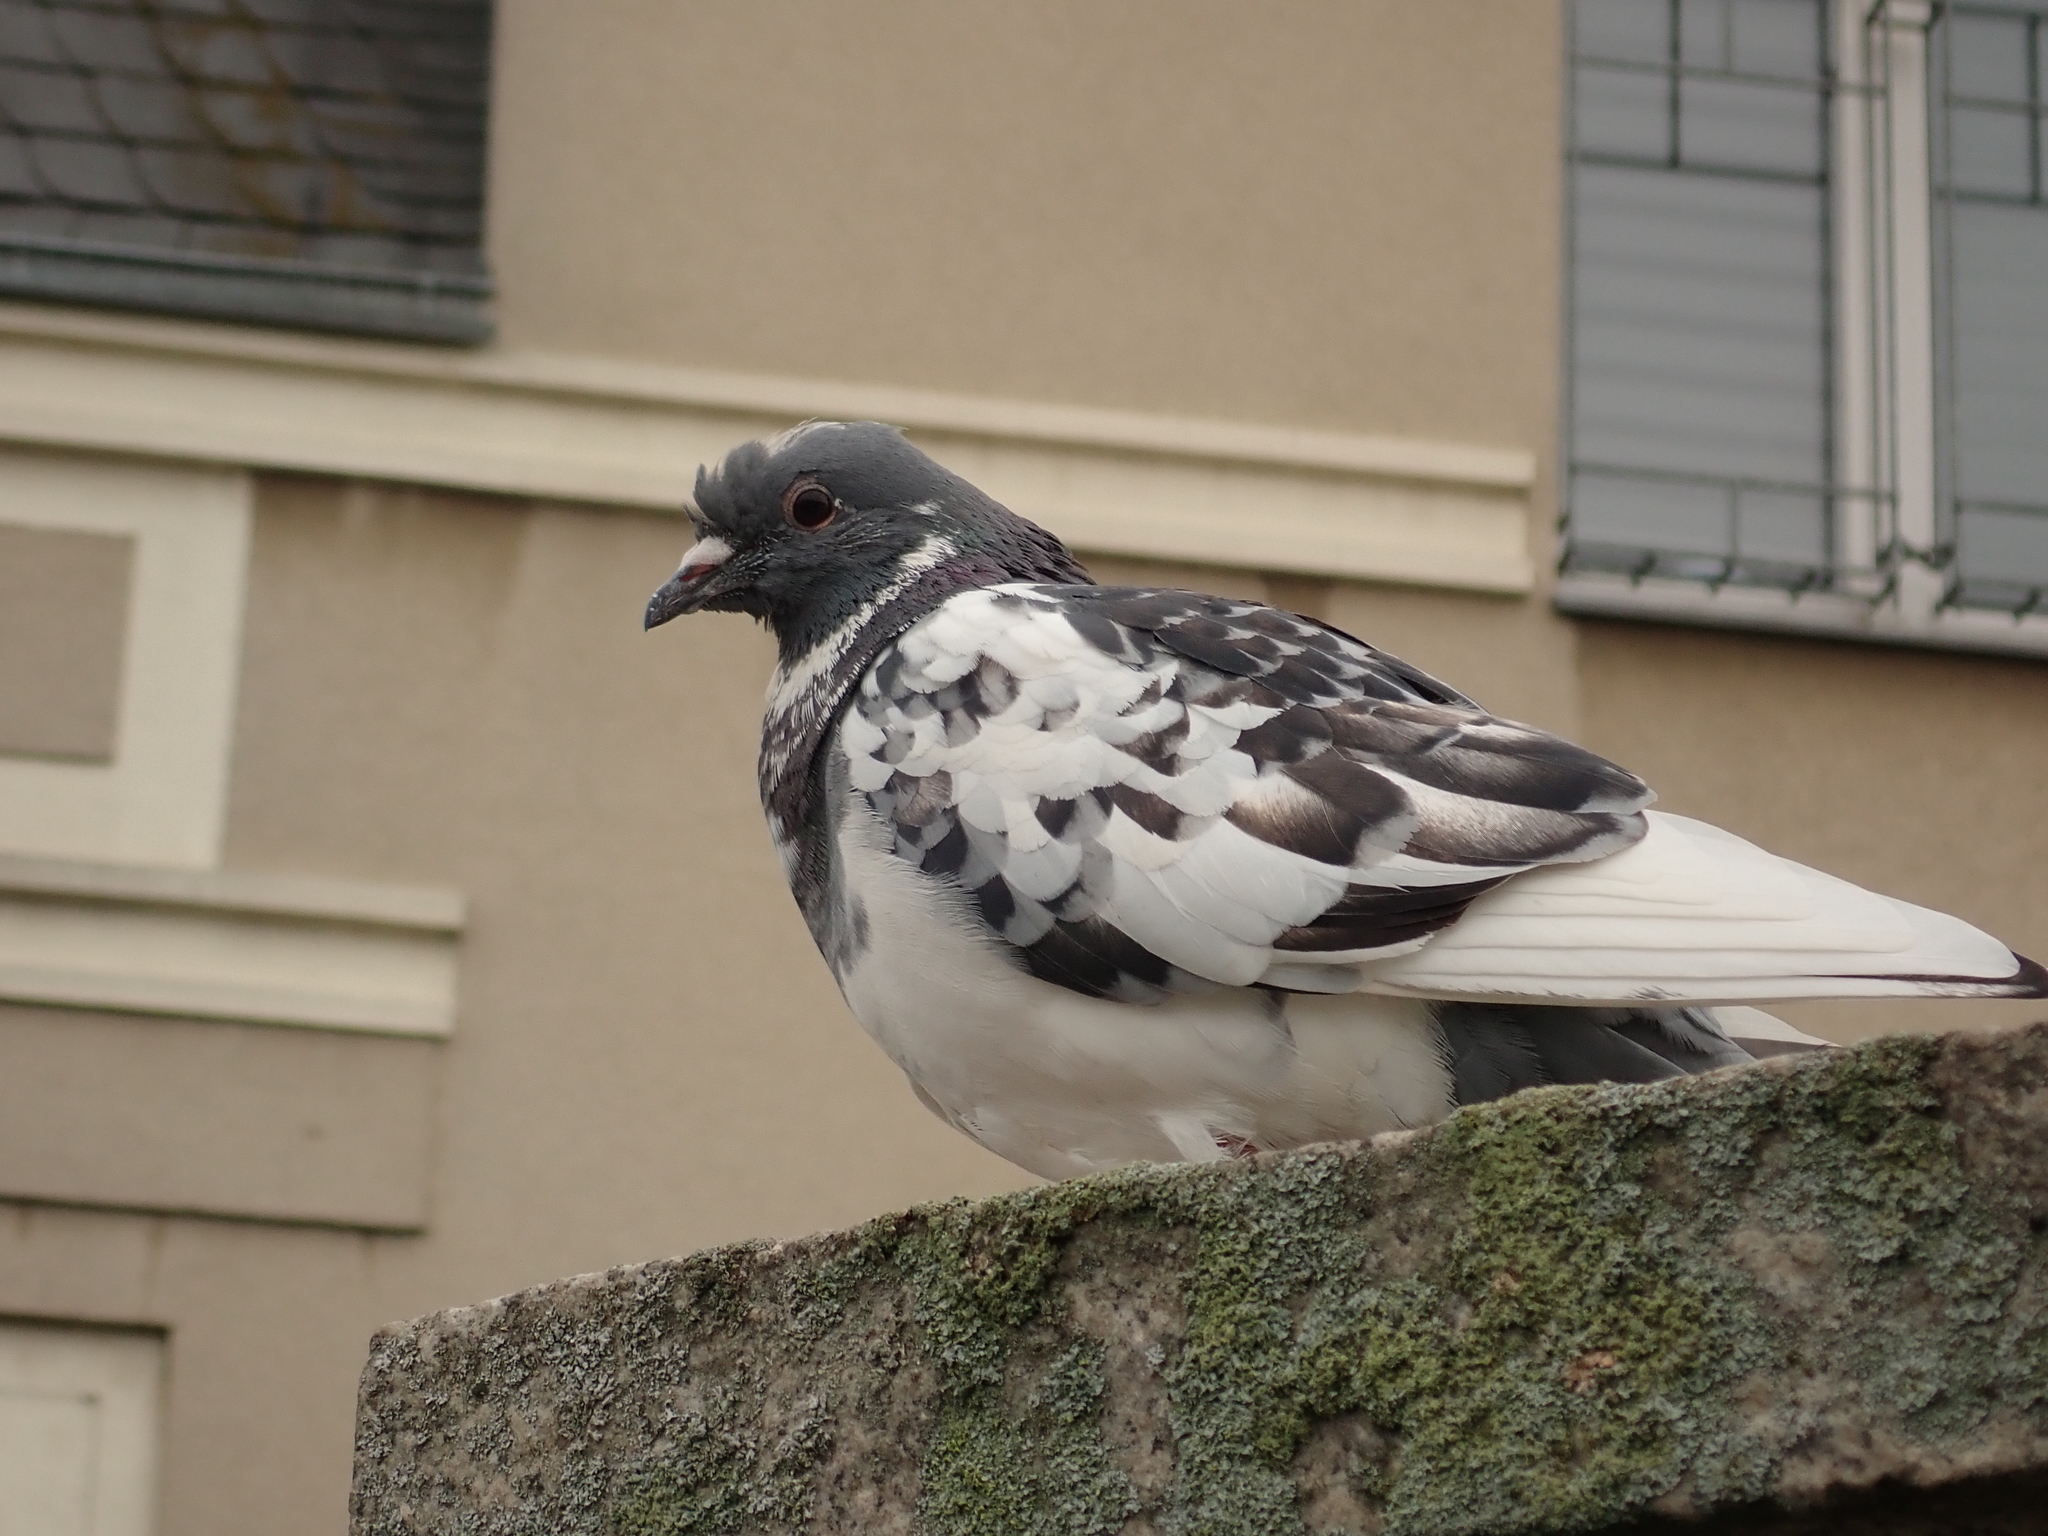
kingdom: Animalia
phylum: Chordata
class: Aves
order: Columbiformes
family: Columbidae
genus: Columba
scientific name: Columba livia
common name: Rock pigeon
